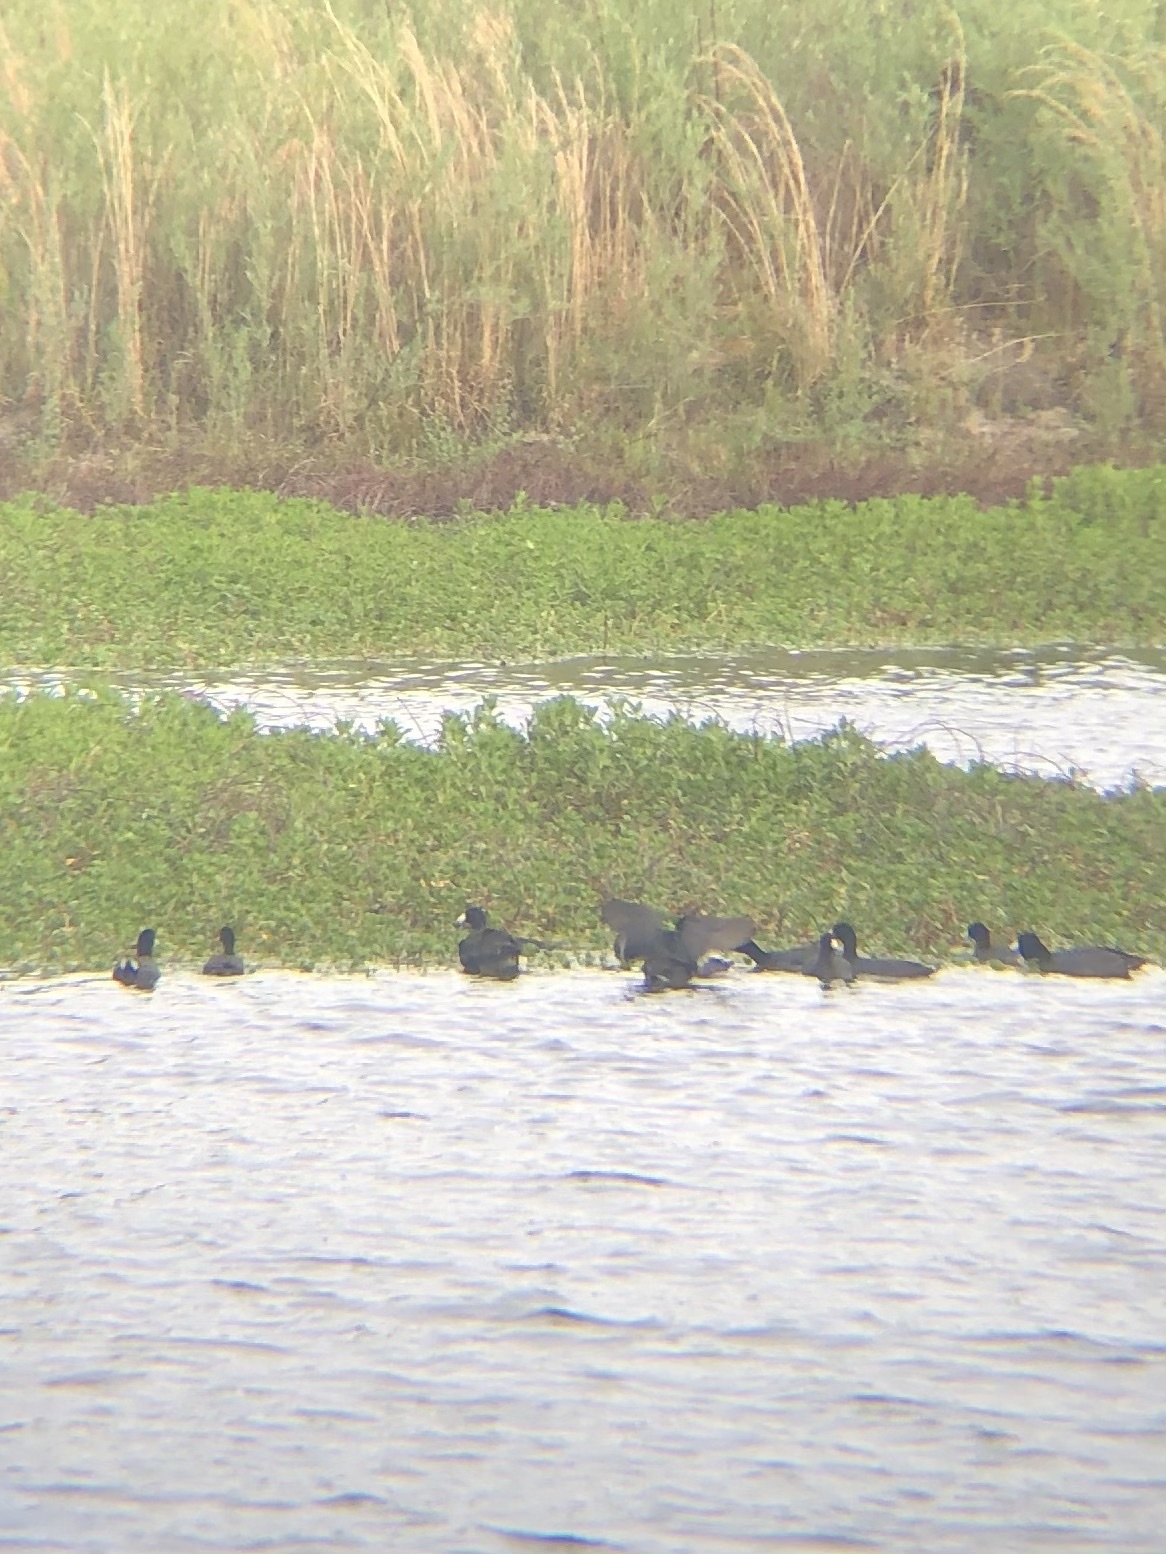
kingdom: Animalia
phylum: Chordata
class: Aves
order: Gruiformes
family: Rallidae
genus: Fulica
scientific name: Fulica americana
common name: American coot
